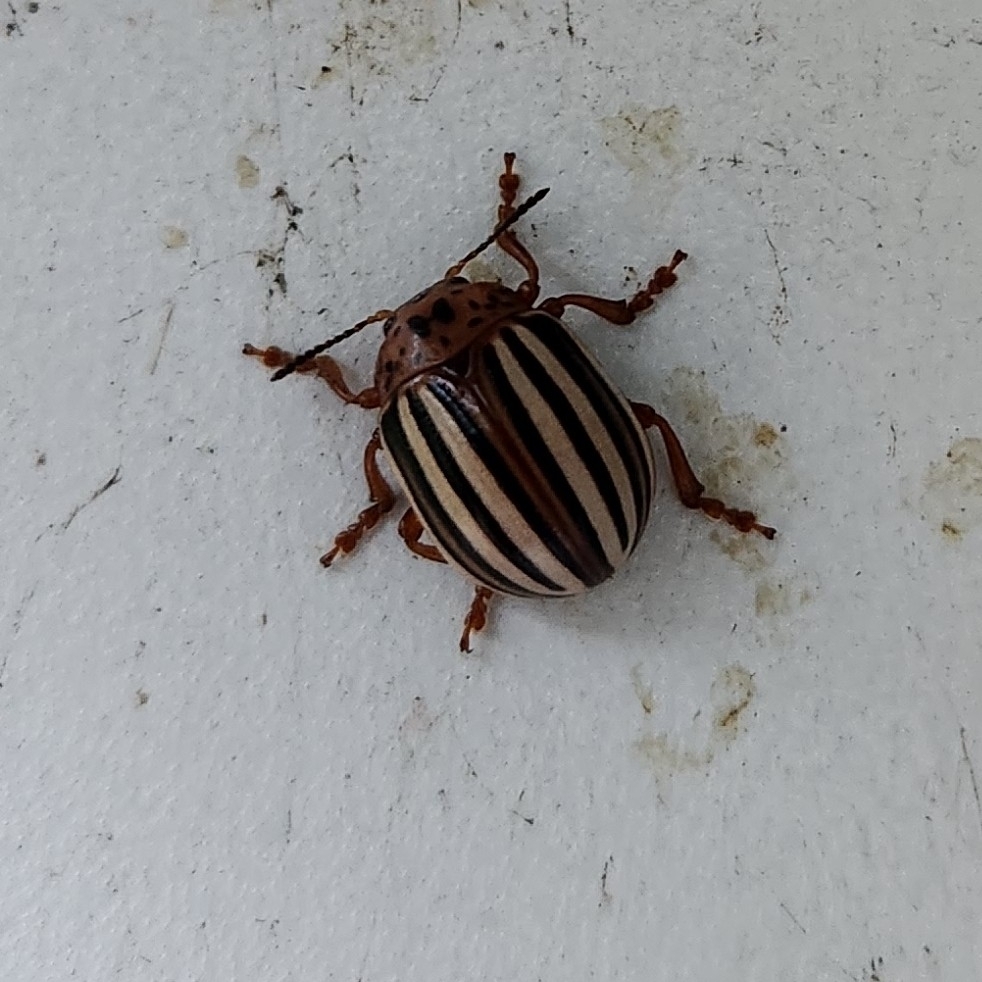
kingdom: Animalia
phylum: Arthropoda
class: Insecta
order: Coleoptera
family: Chrysomelidae
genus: Leptinotarsa
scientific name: Leptinotarsa juncta
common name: False potato beetle
